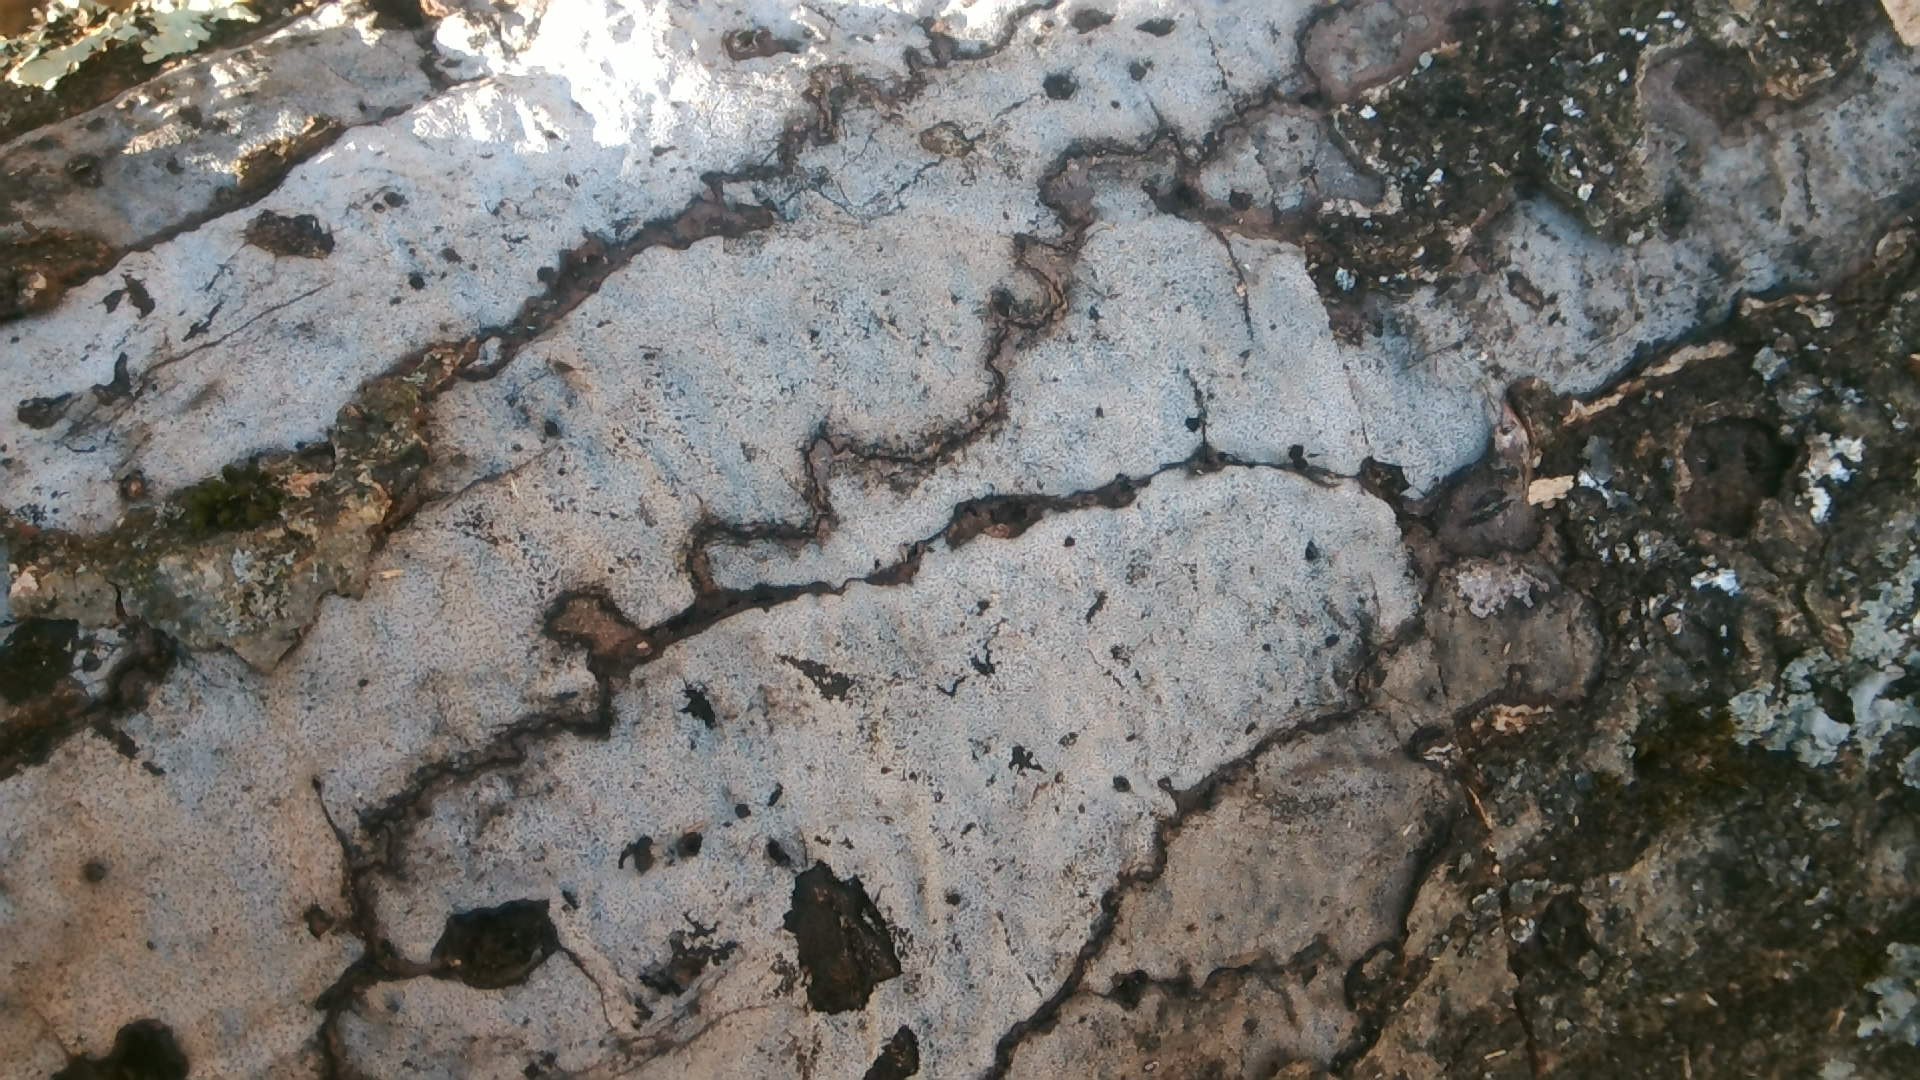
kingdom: Fungi
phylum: Ascomycota
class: Sordariomycetes
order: Xylariales
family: Graphostromataceae
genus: Biscogniauxia
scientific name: Biscogniauxia atropunctata
